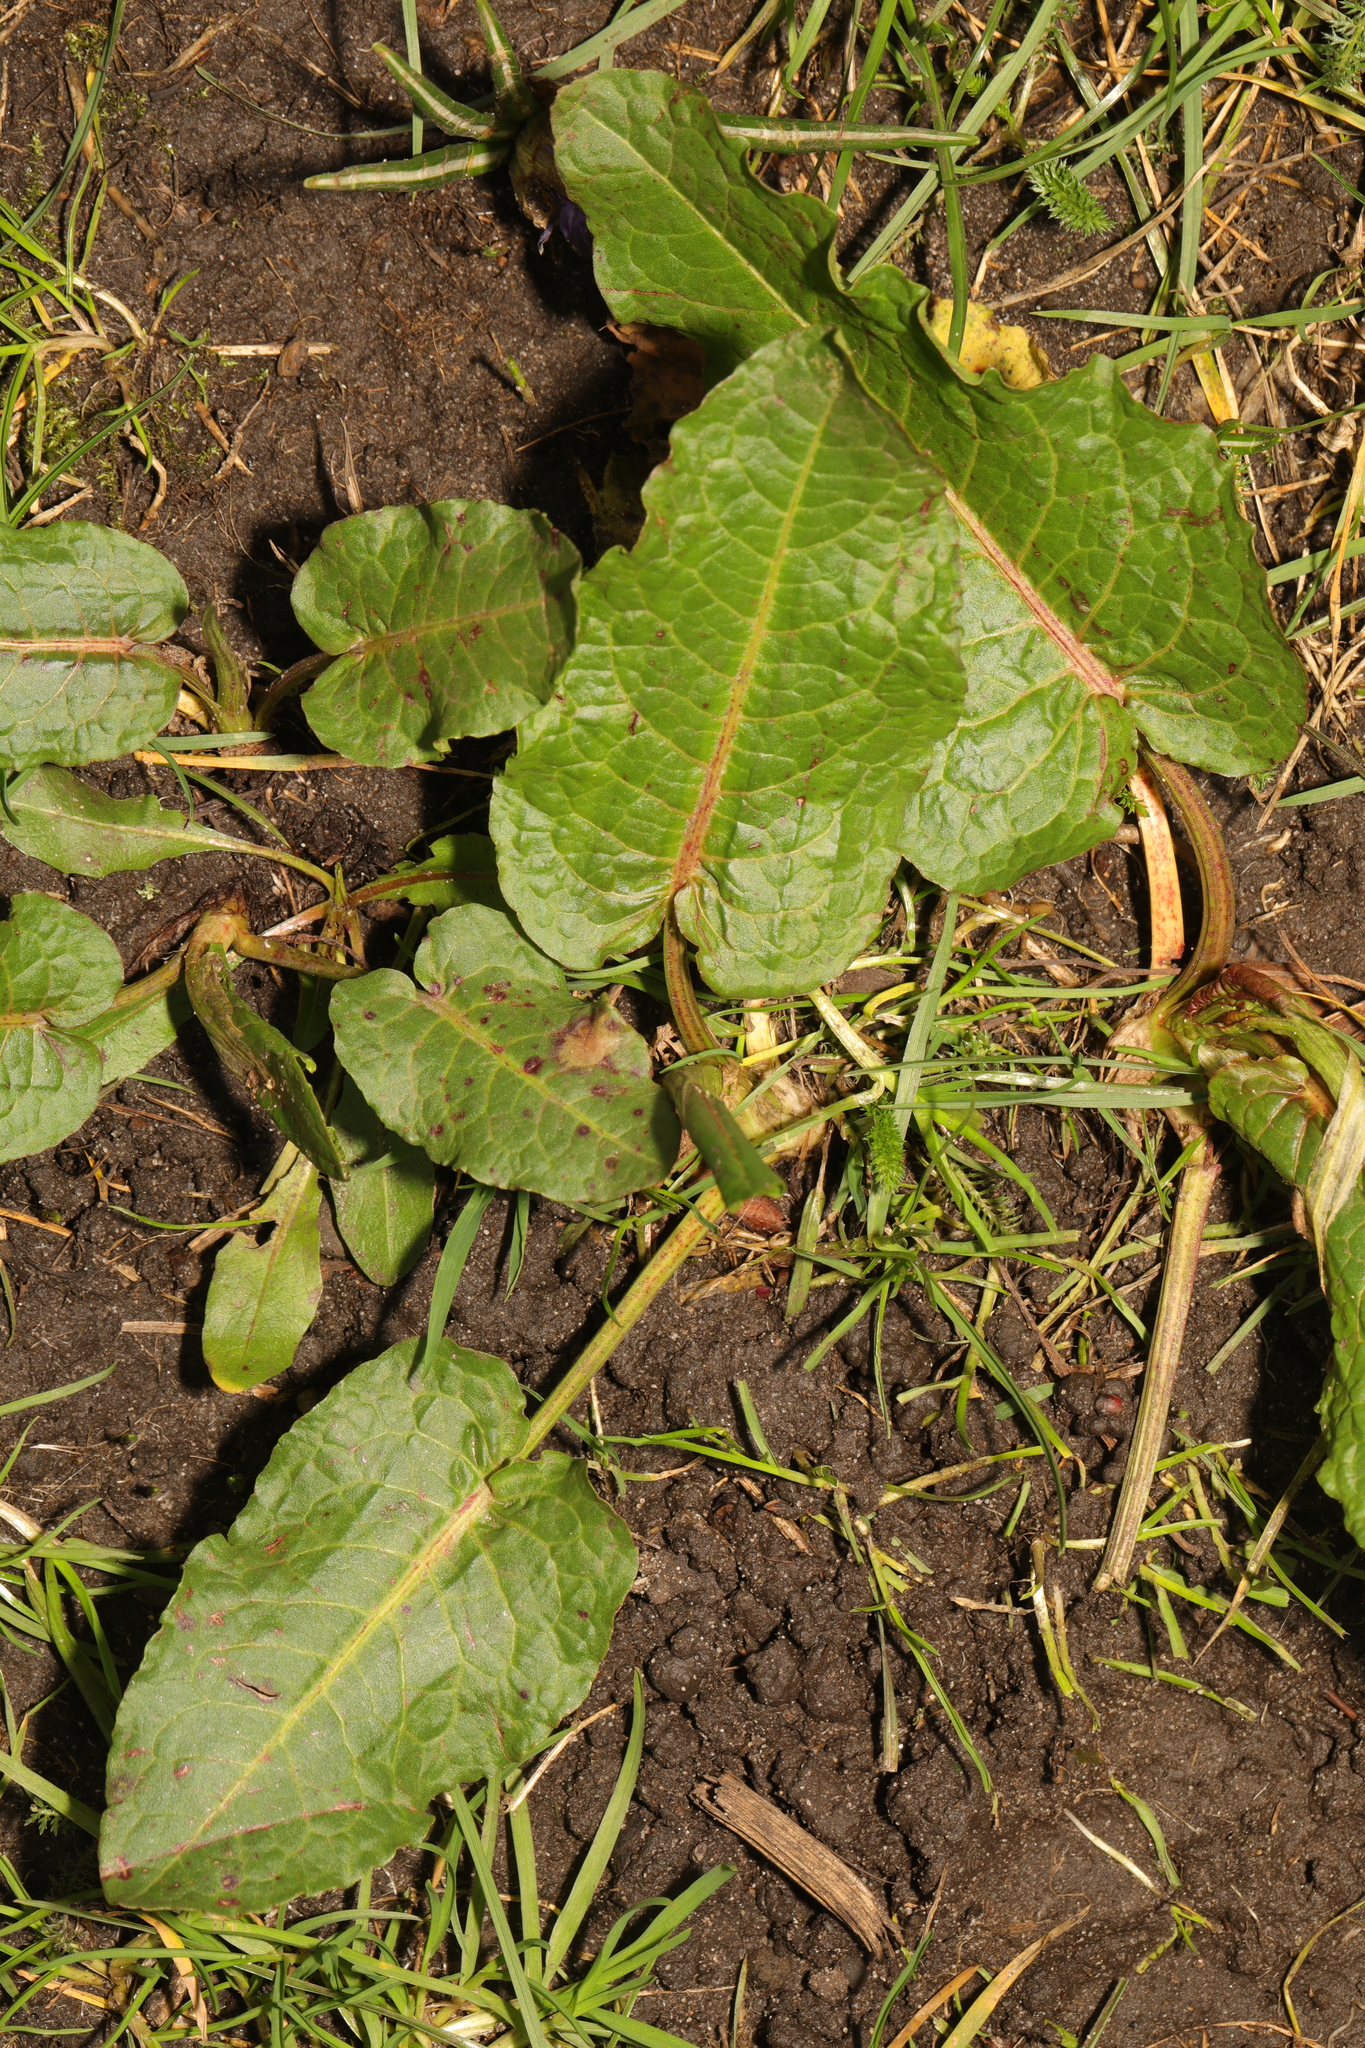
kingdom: Plantae
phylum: Tracheophyta
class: Magnoliopsida
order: Caryophyllales
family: Polygonaceae
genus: Rumex
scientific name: Rumex obtusifolius
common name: Bitter dock
